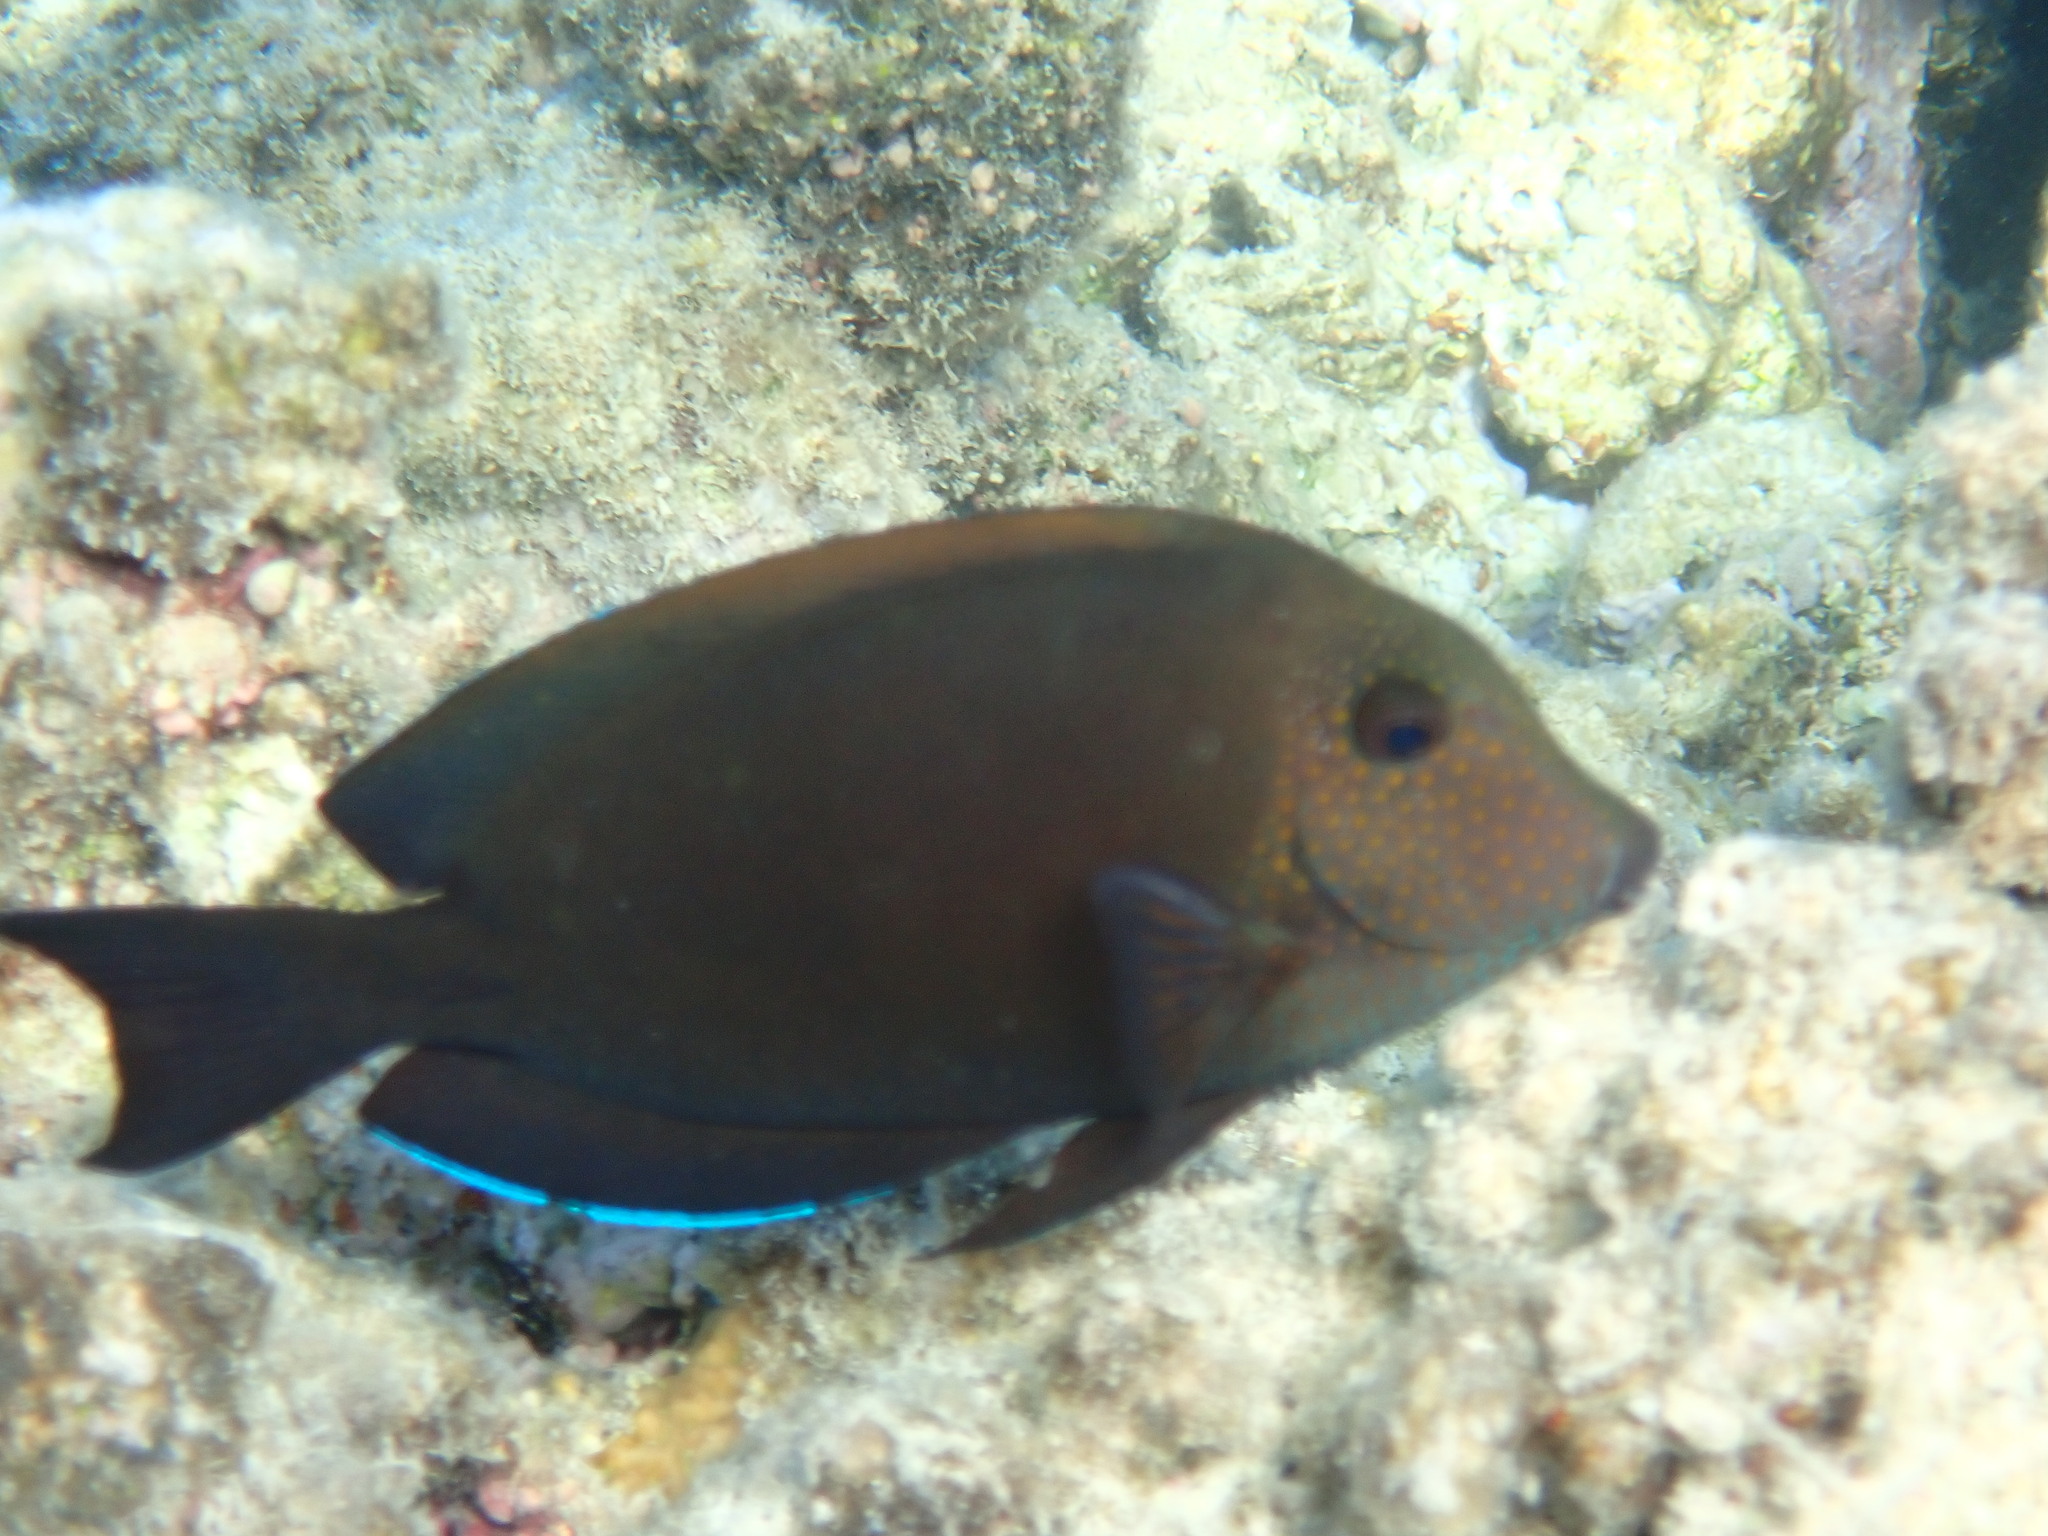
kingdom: Animalia
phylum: Chordata
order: Perciformes
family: Acanthuridae
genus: Acanthurus
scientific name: Acanthurus nigrofuscus
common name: Blackspot surgeonfish
